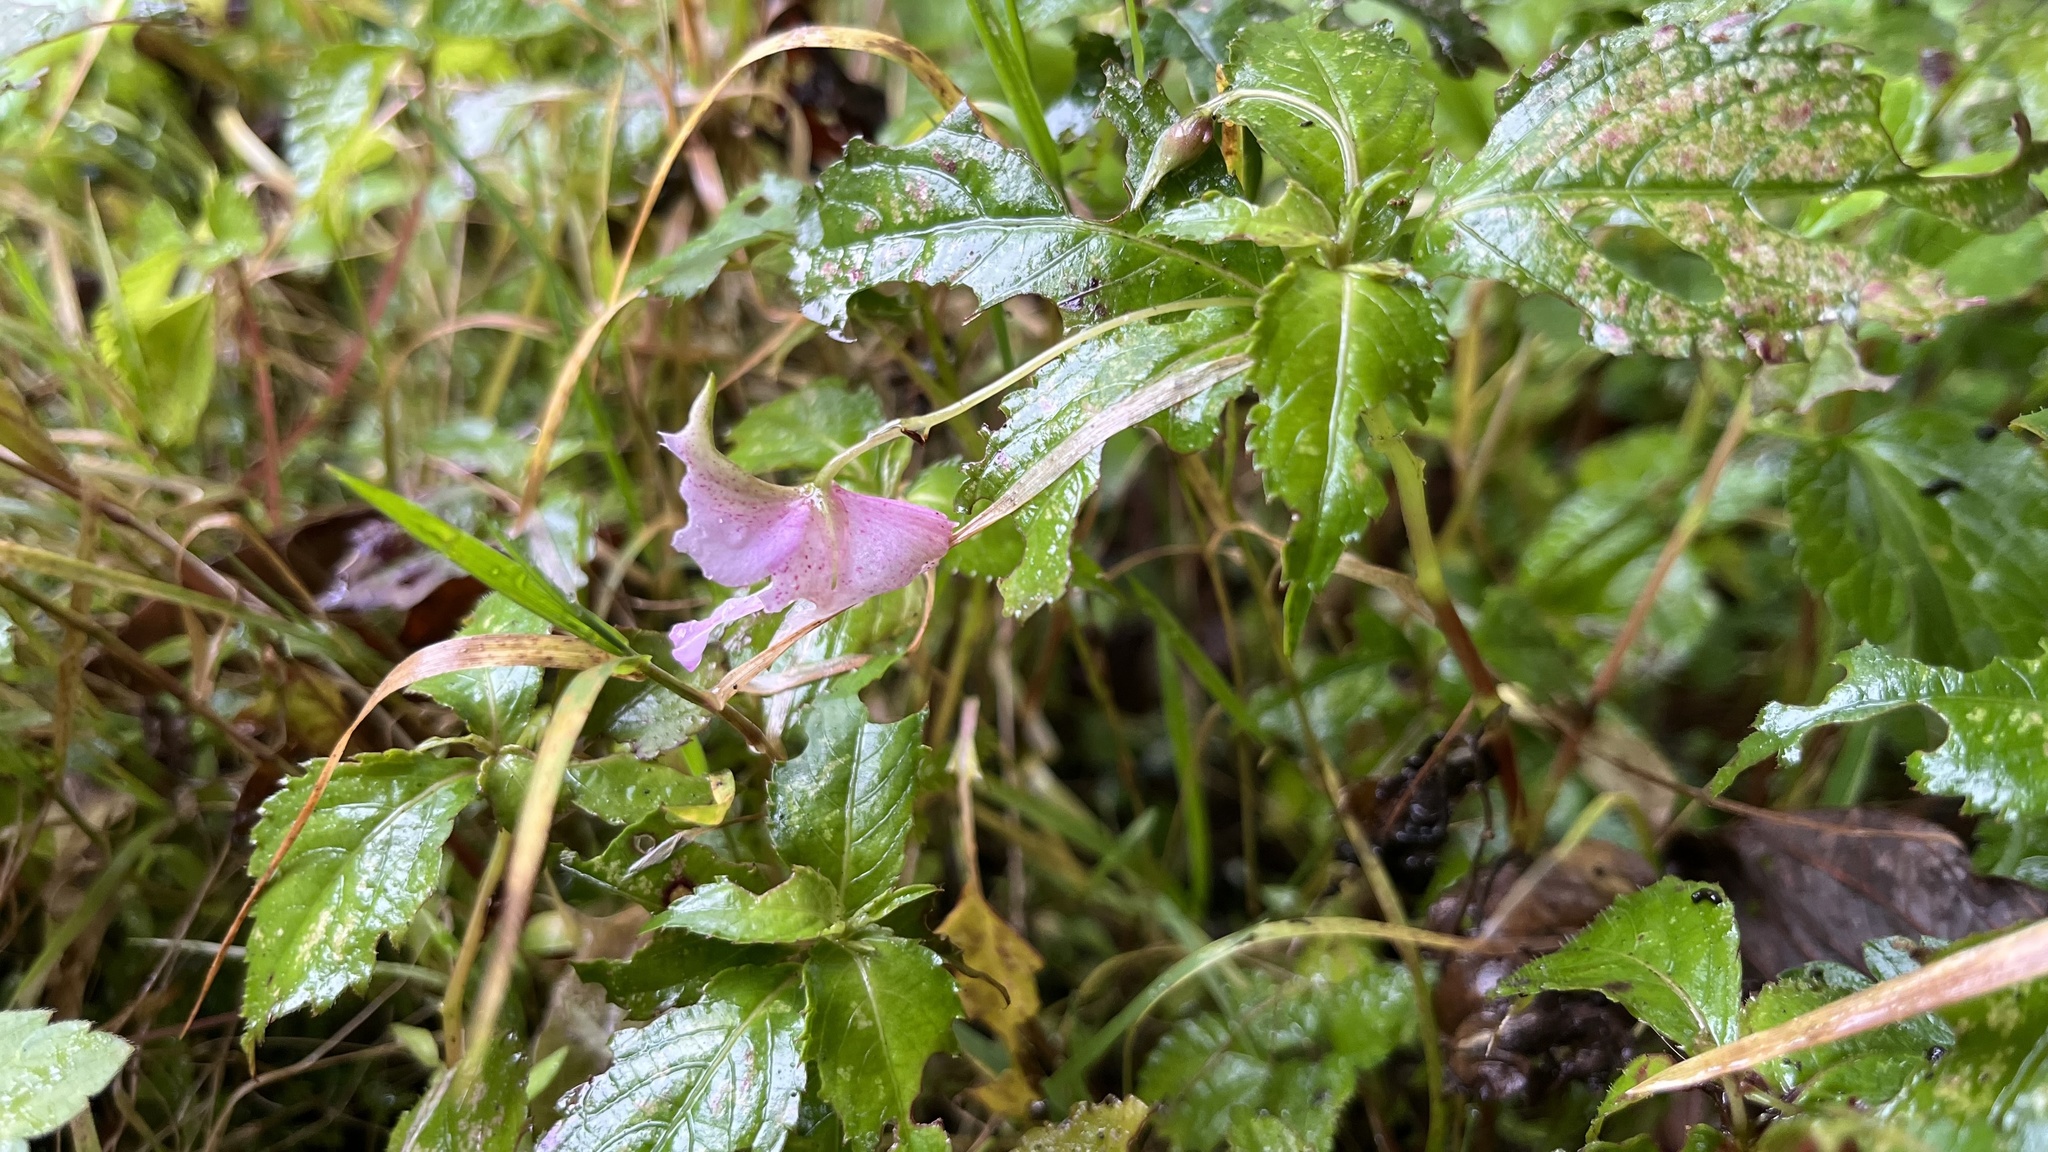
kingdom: Plantae
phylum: Tracheophyta
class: Magnoliopsida
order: Ericales
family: Balsaminaceae
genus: Impatiens
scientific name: Impatiens uniflora
